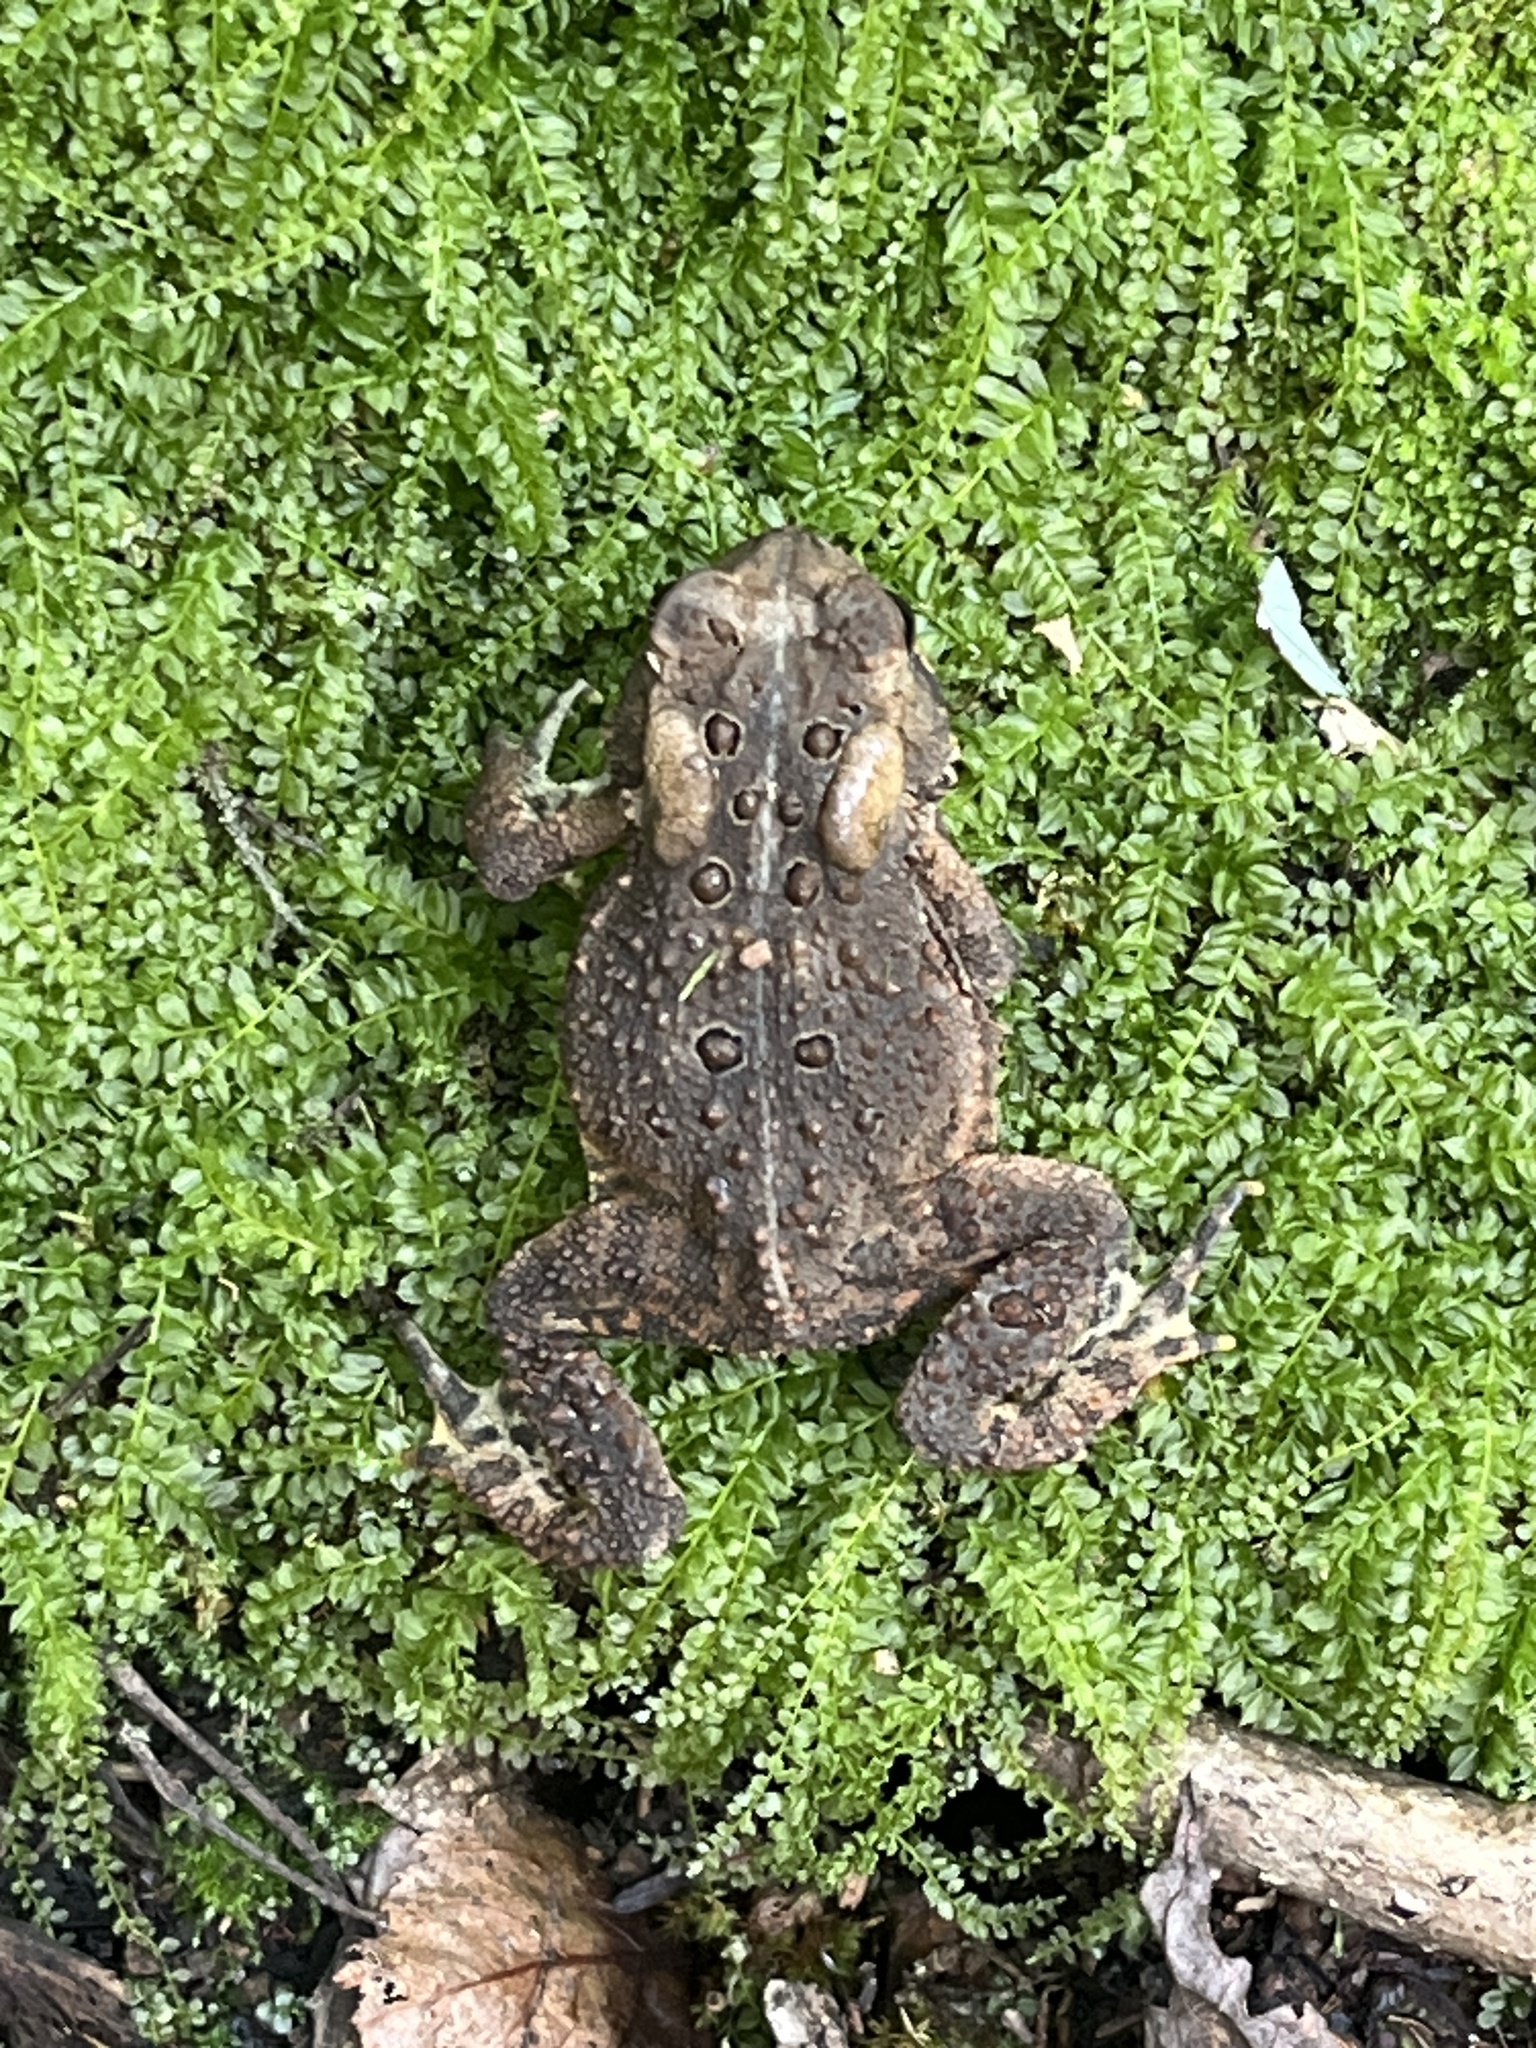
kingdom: Animalia
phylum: Chordata
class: Amphibia
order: Anura
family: Bufonidae
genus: Anaxyrus
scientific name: Anaxyrus americanus
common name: American toad
